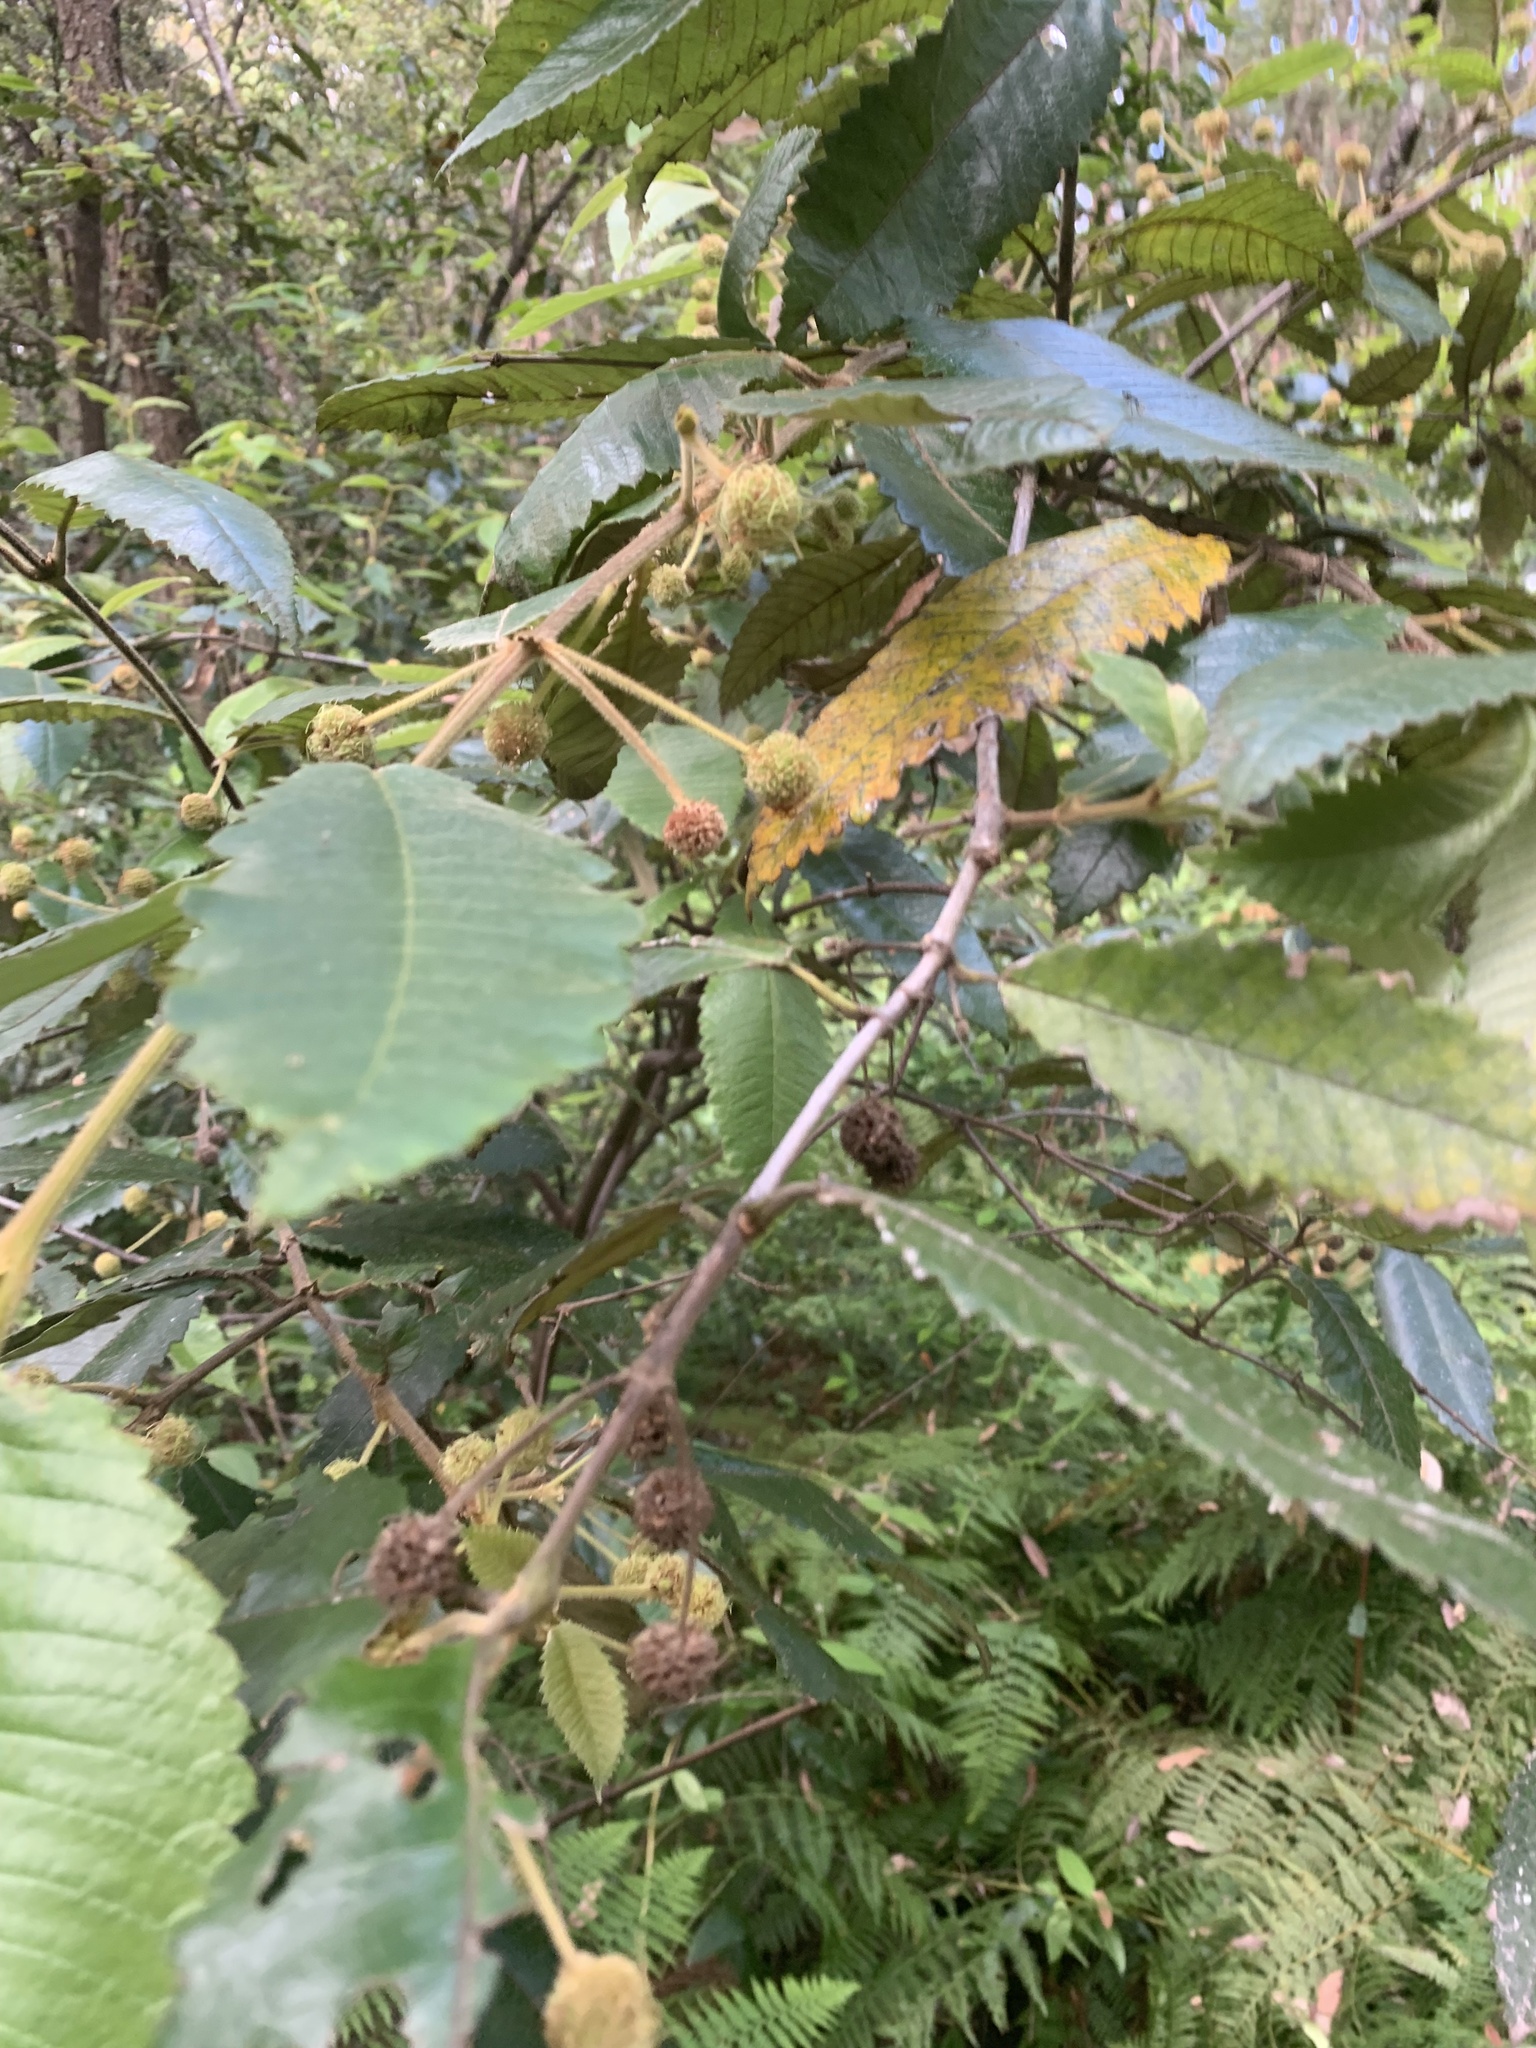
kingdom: Plantae
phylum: Tracheophyta
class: Magnoliopsida
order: Oxalidales
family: Cunoniaceae
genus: Callicoma
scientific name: Callicoma serratifolia
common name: Black wattle
